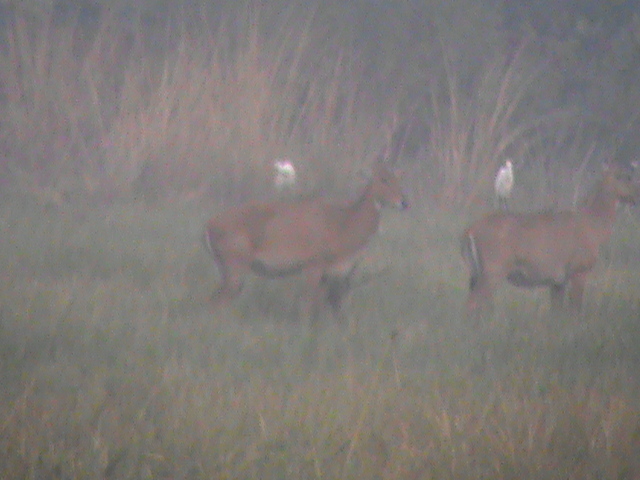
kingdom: Animalia
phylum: Chordata
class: Mammalia
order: Artiodactyla
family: Bovidae
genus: Boselaphus
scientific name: Boselaphus tragocamelus
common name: Nilgai
